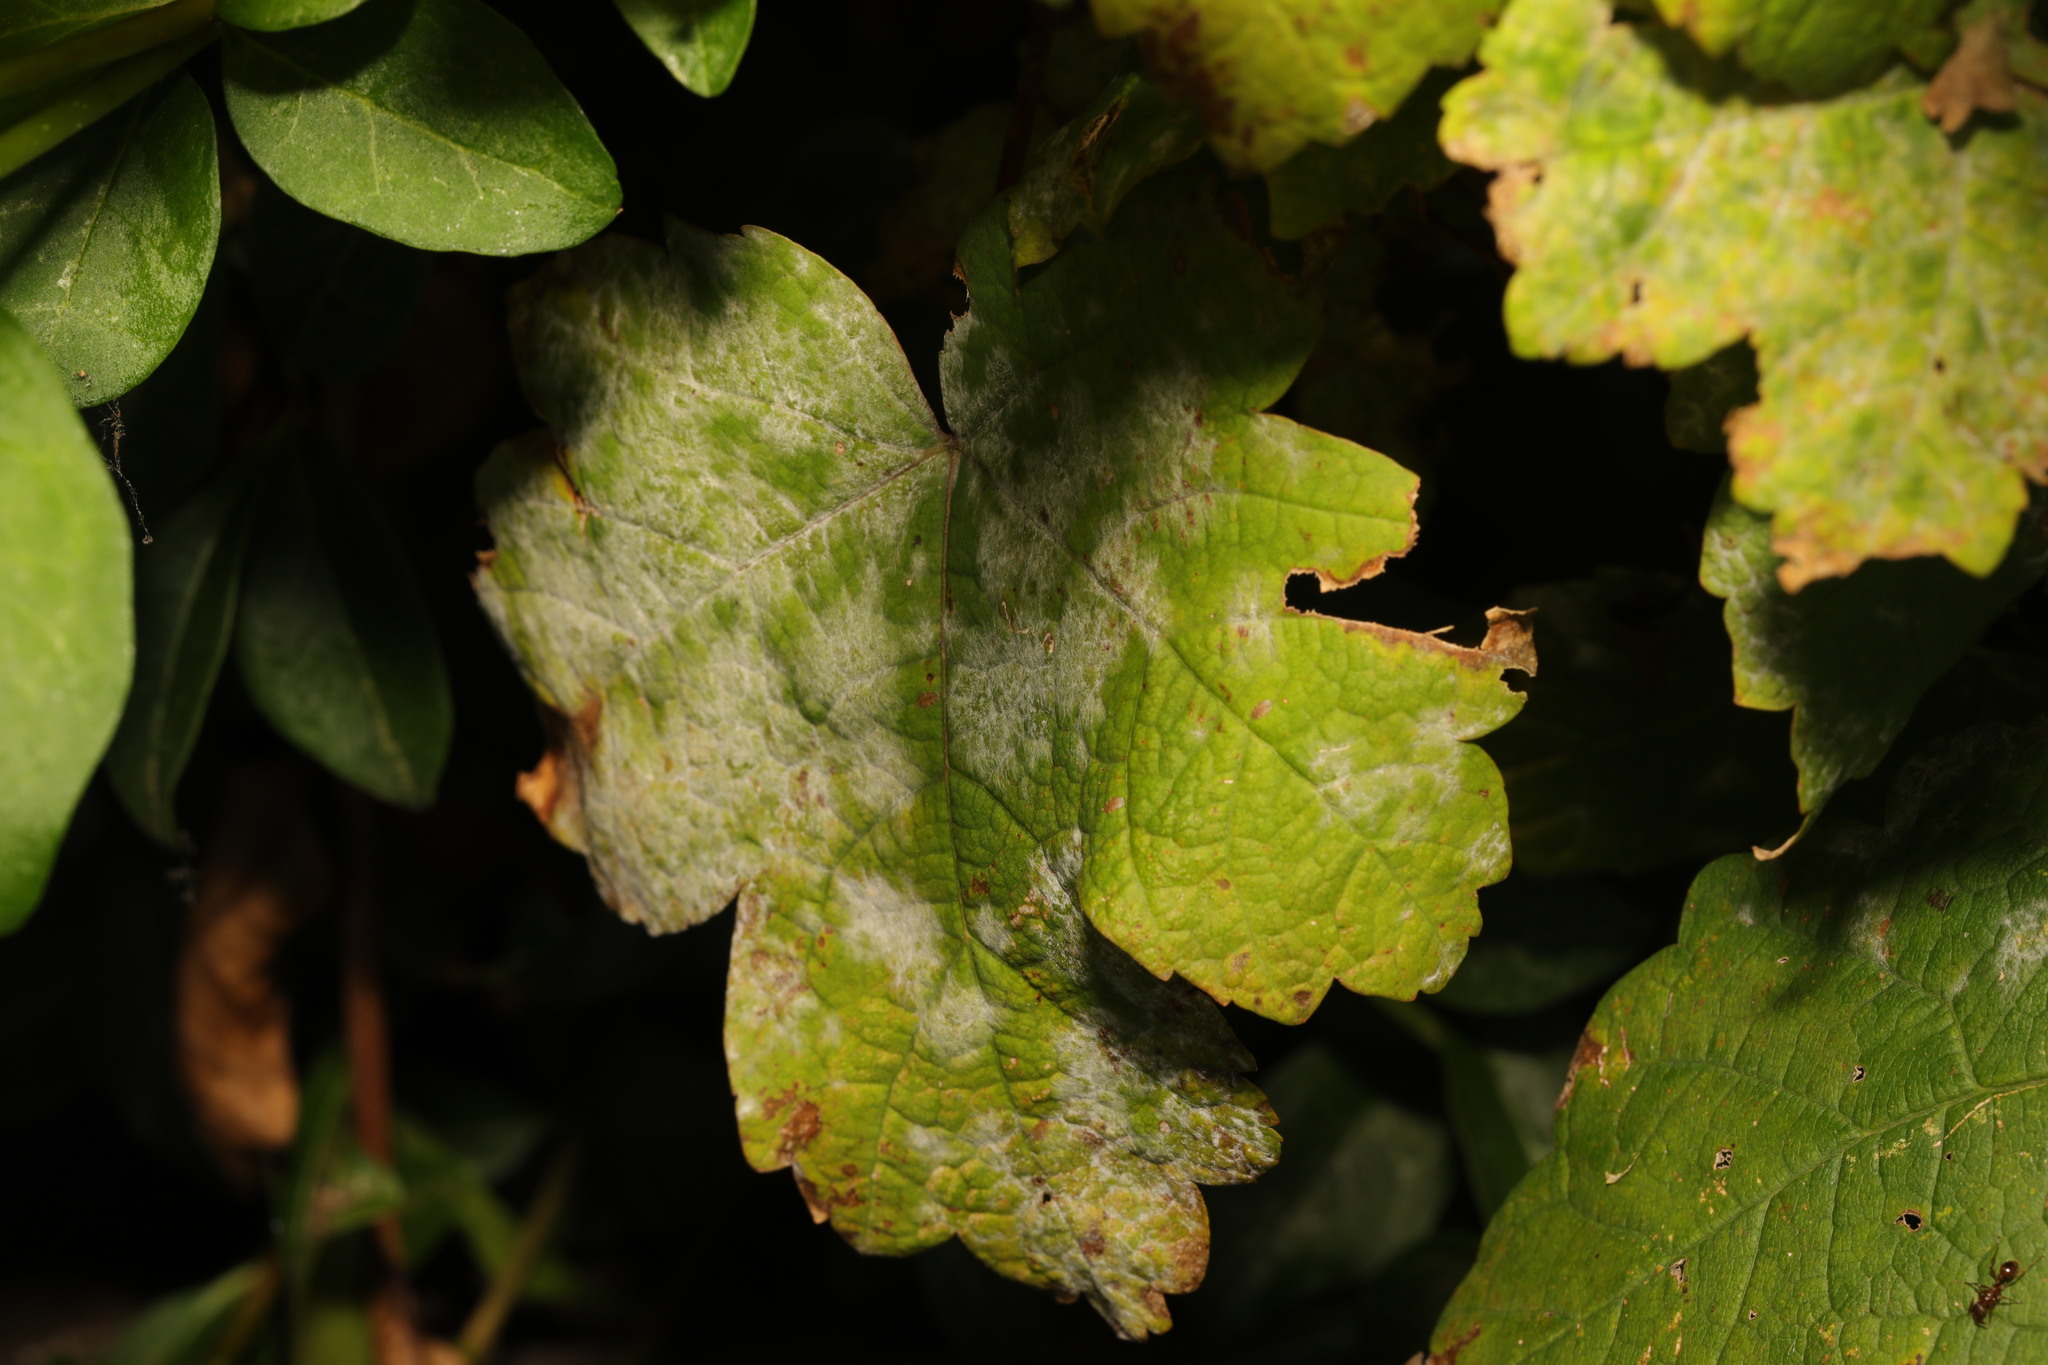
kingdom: Plantae
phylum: Tracheophyta
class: Magnoliopsida
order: Sapindales
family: Sapindaceae
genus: Acer
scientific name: Acer pseudoplatanus
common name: Sycamore
